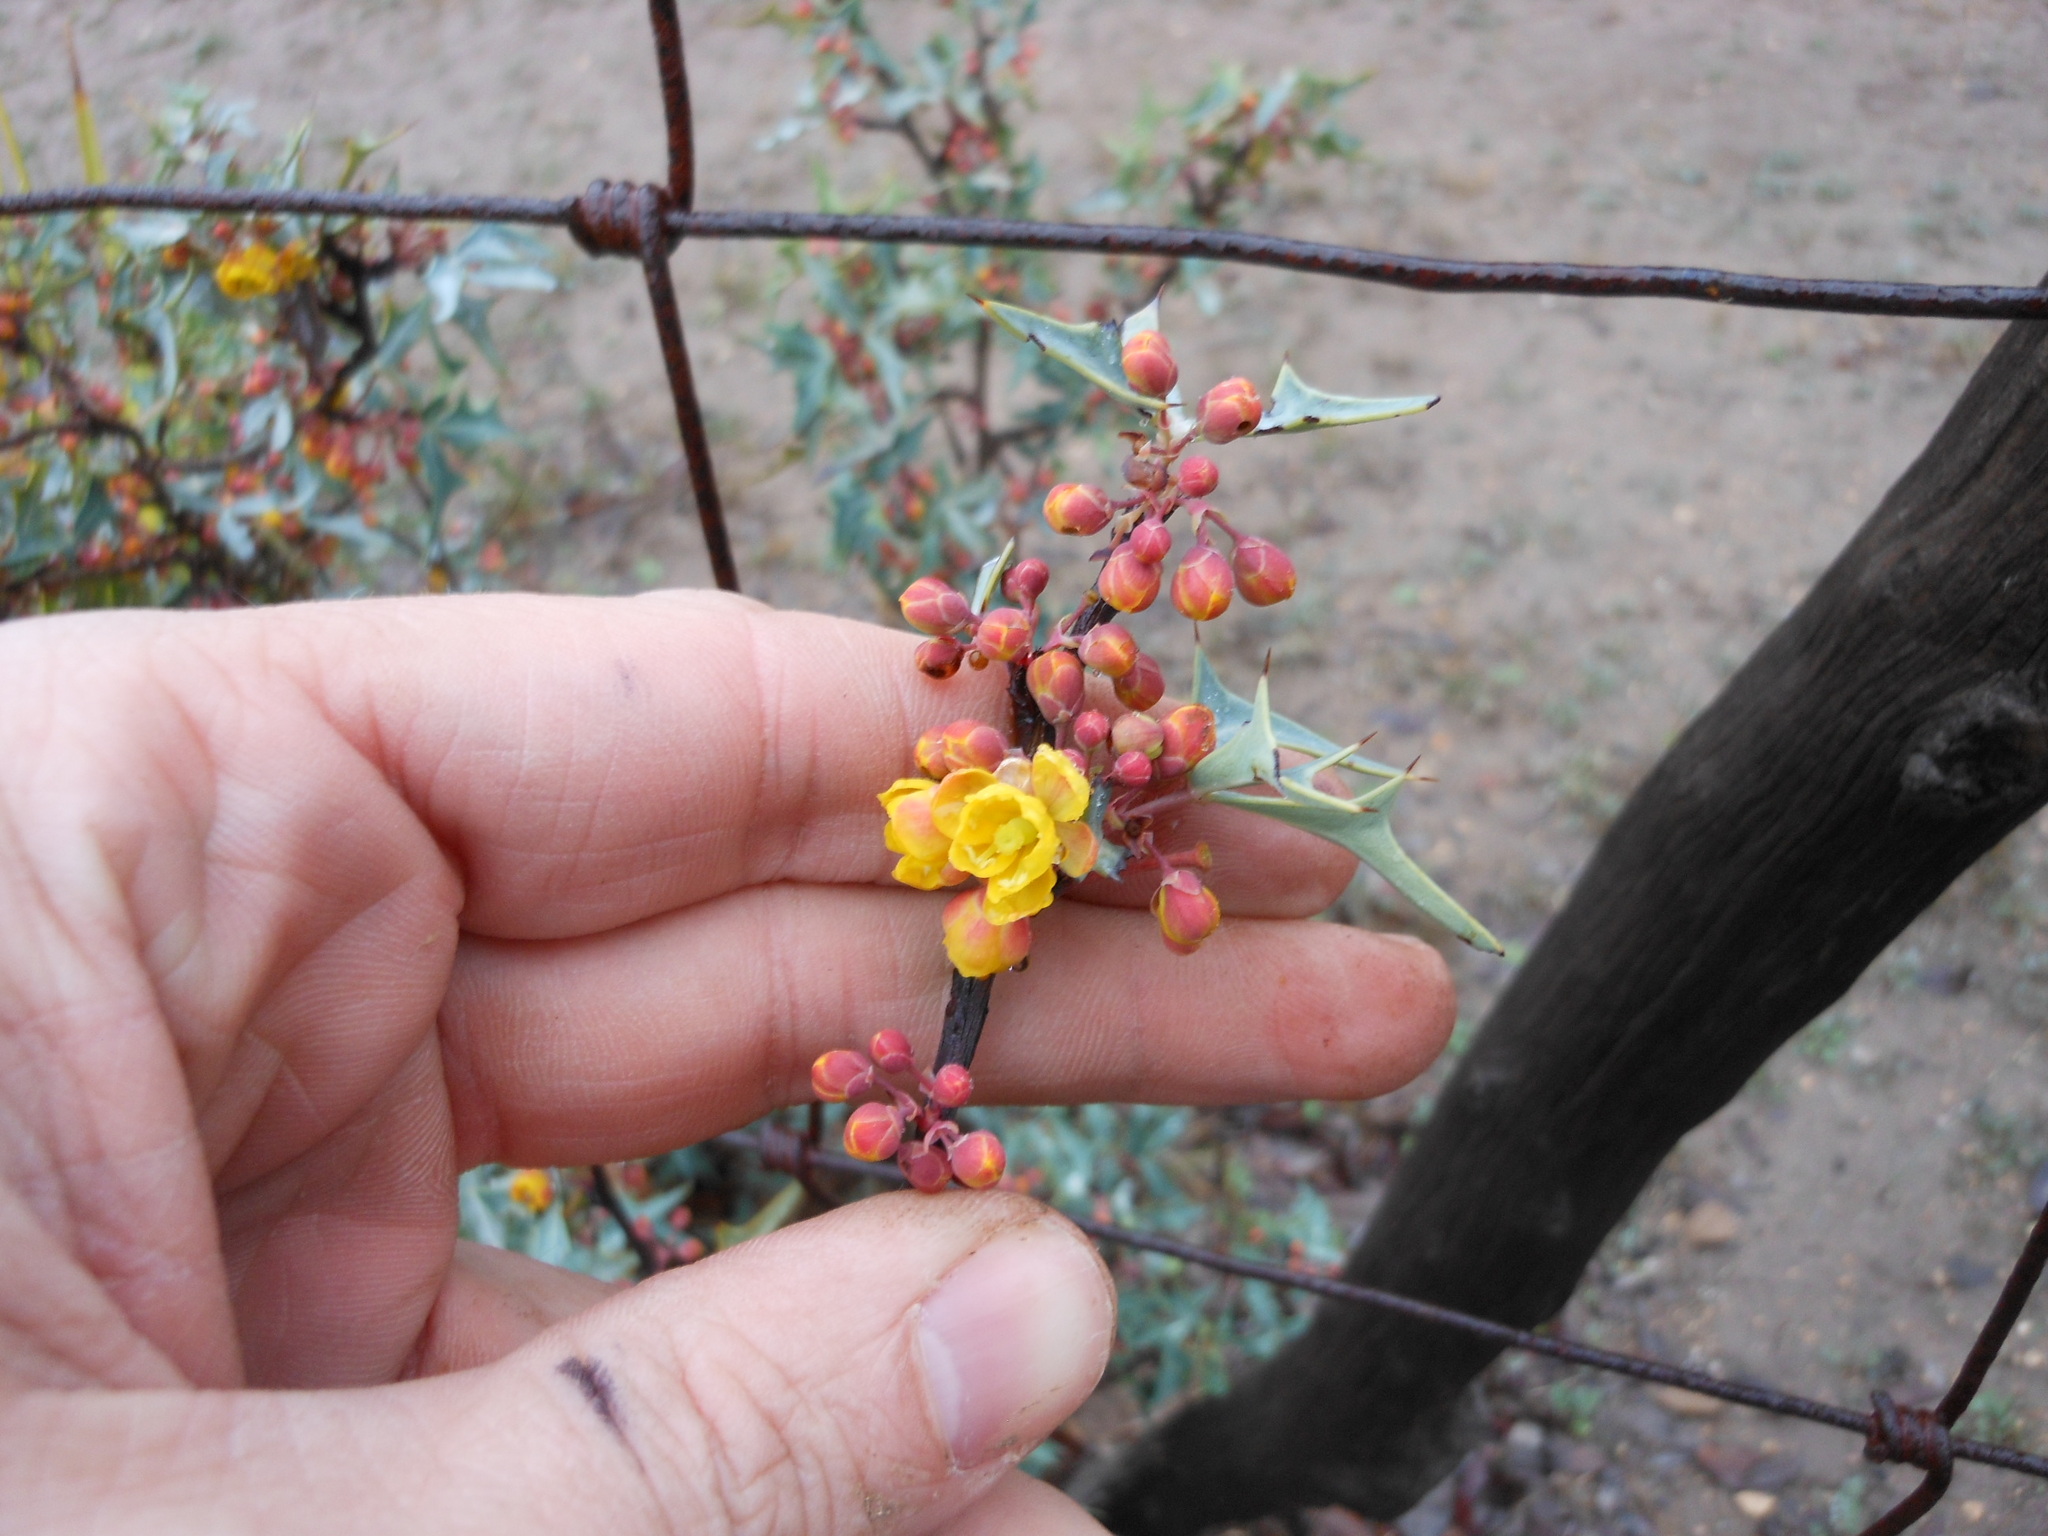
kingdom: Plantae
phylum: Tracheophyta
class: Magnoliopsida
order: Ranunculales
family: Berberidaceae
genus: Alloberberis
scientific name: Alloberberis trifoliolata
